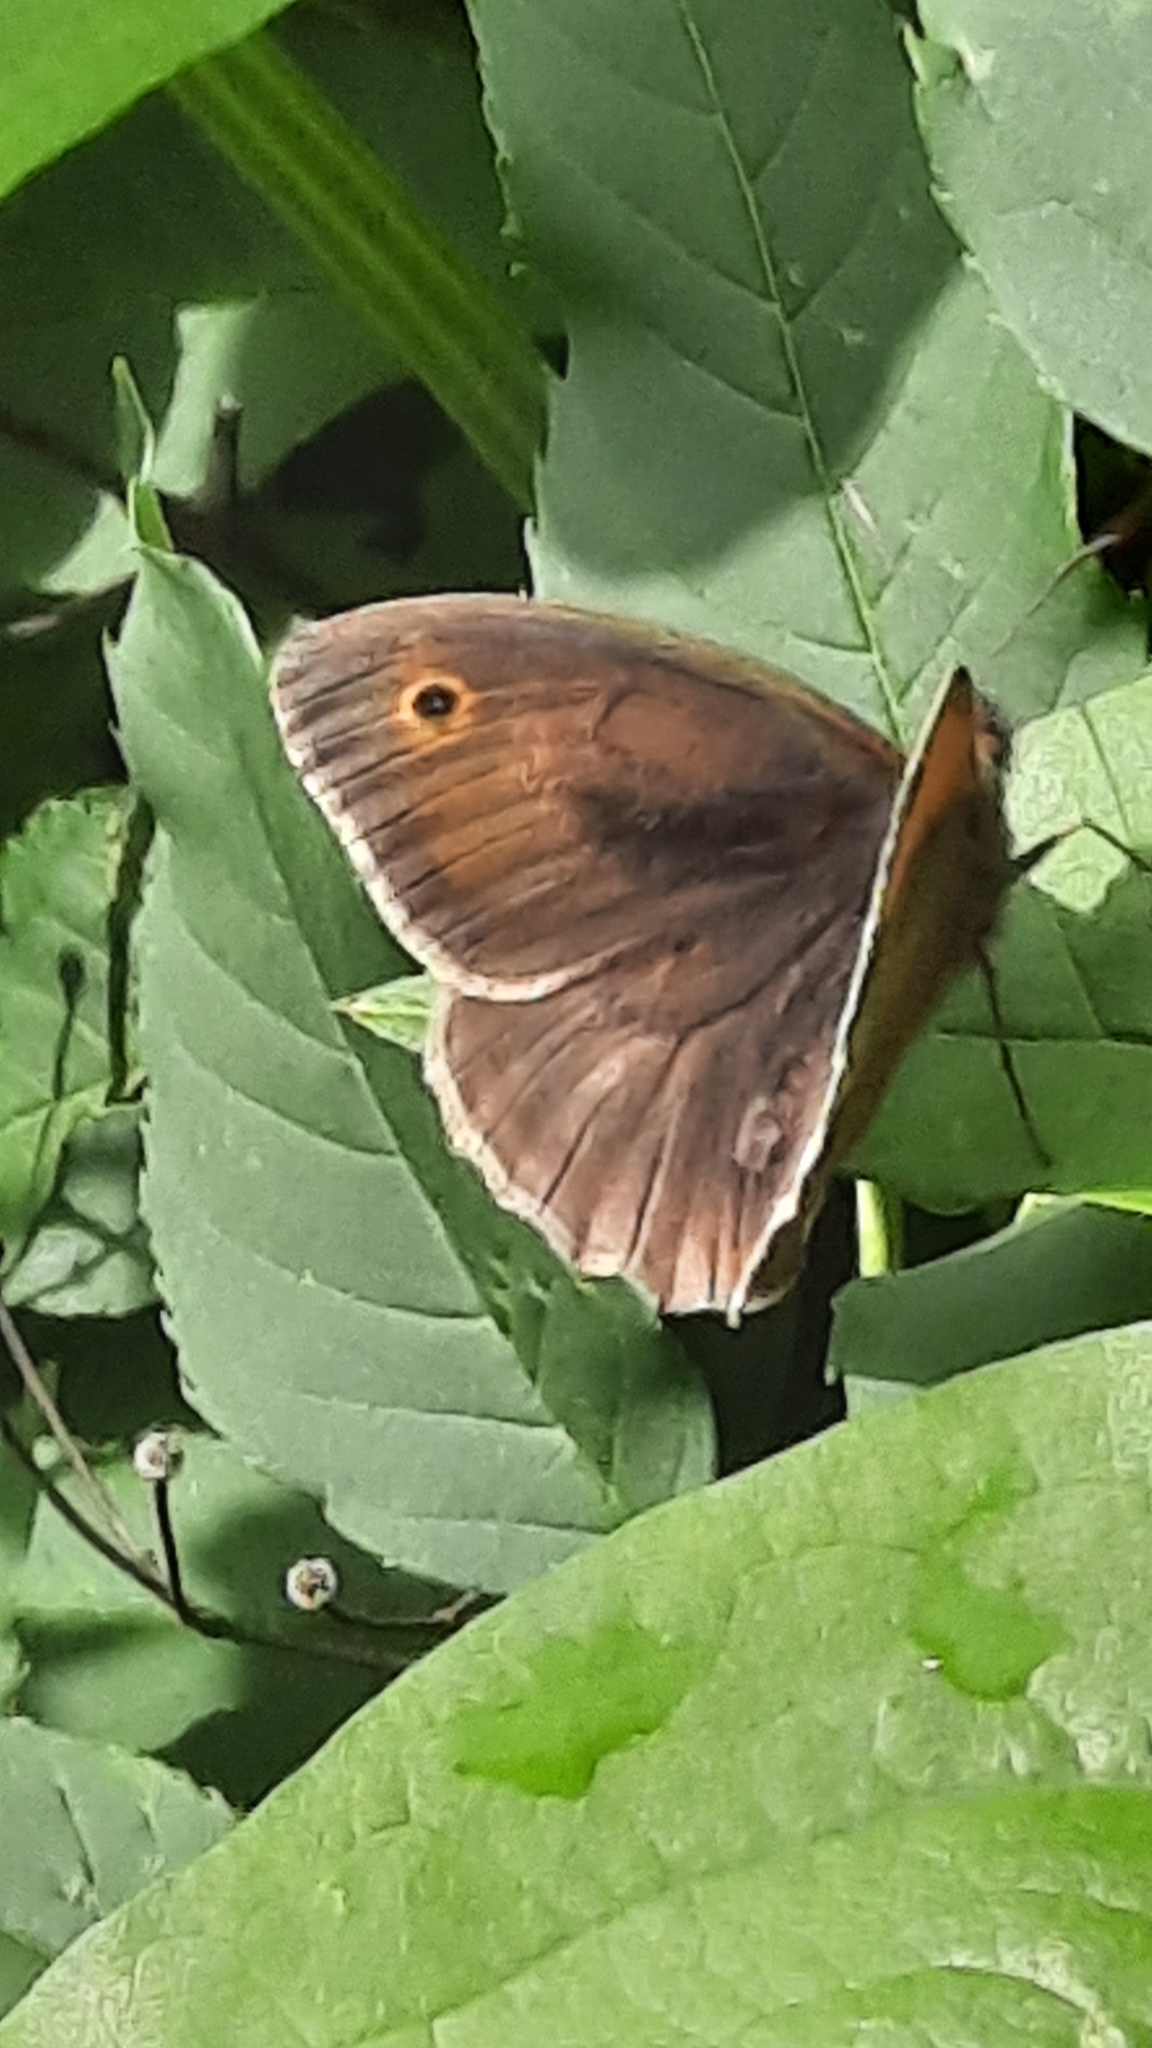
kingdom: Animalia
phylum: Arthropoda
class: Insecta
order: Lepidoptera
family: Nymphalidae
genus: Maniola
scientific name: Maniola jurtina
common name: Meadow brown
